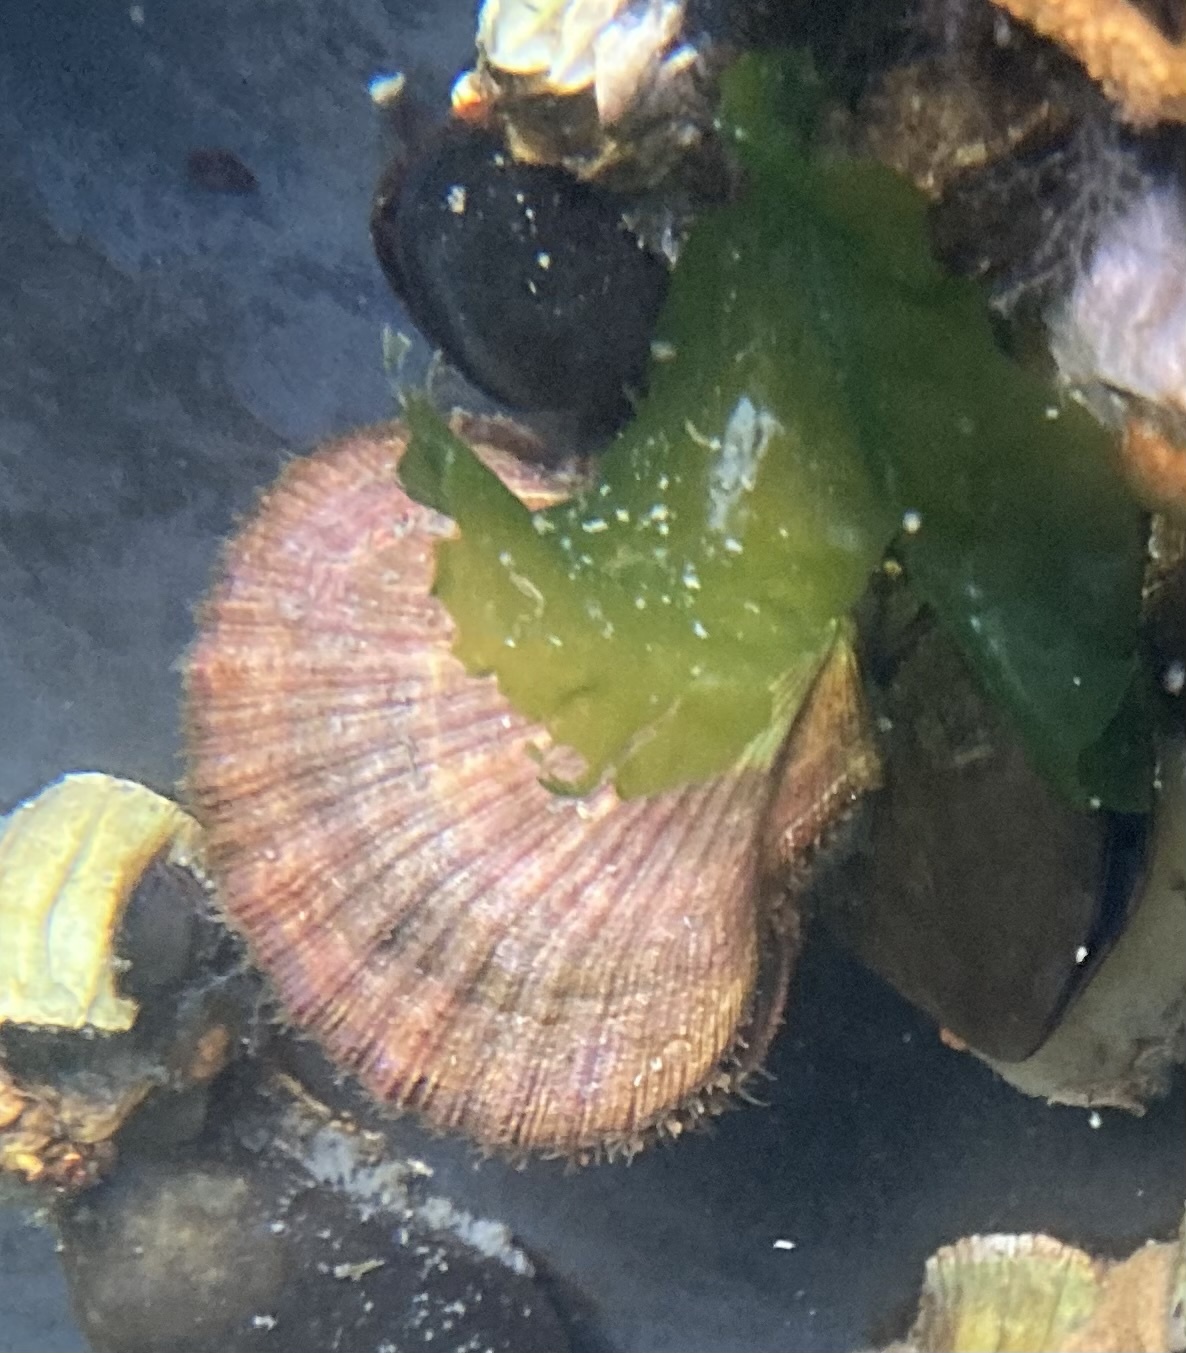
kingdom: Animalia
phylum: Mollusca
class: Bivalvia
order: Pectinida
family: Pectinidae
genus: Chlamys
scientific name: Chlamys hastata
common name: Spear scallop
